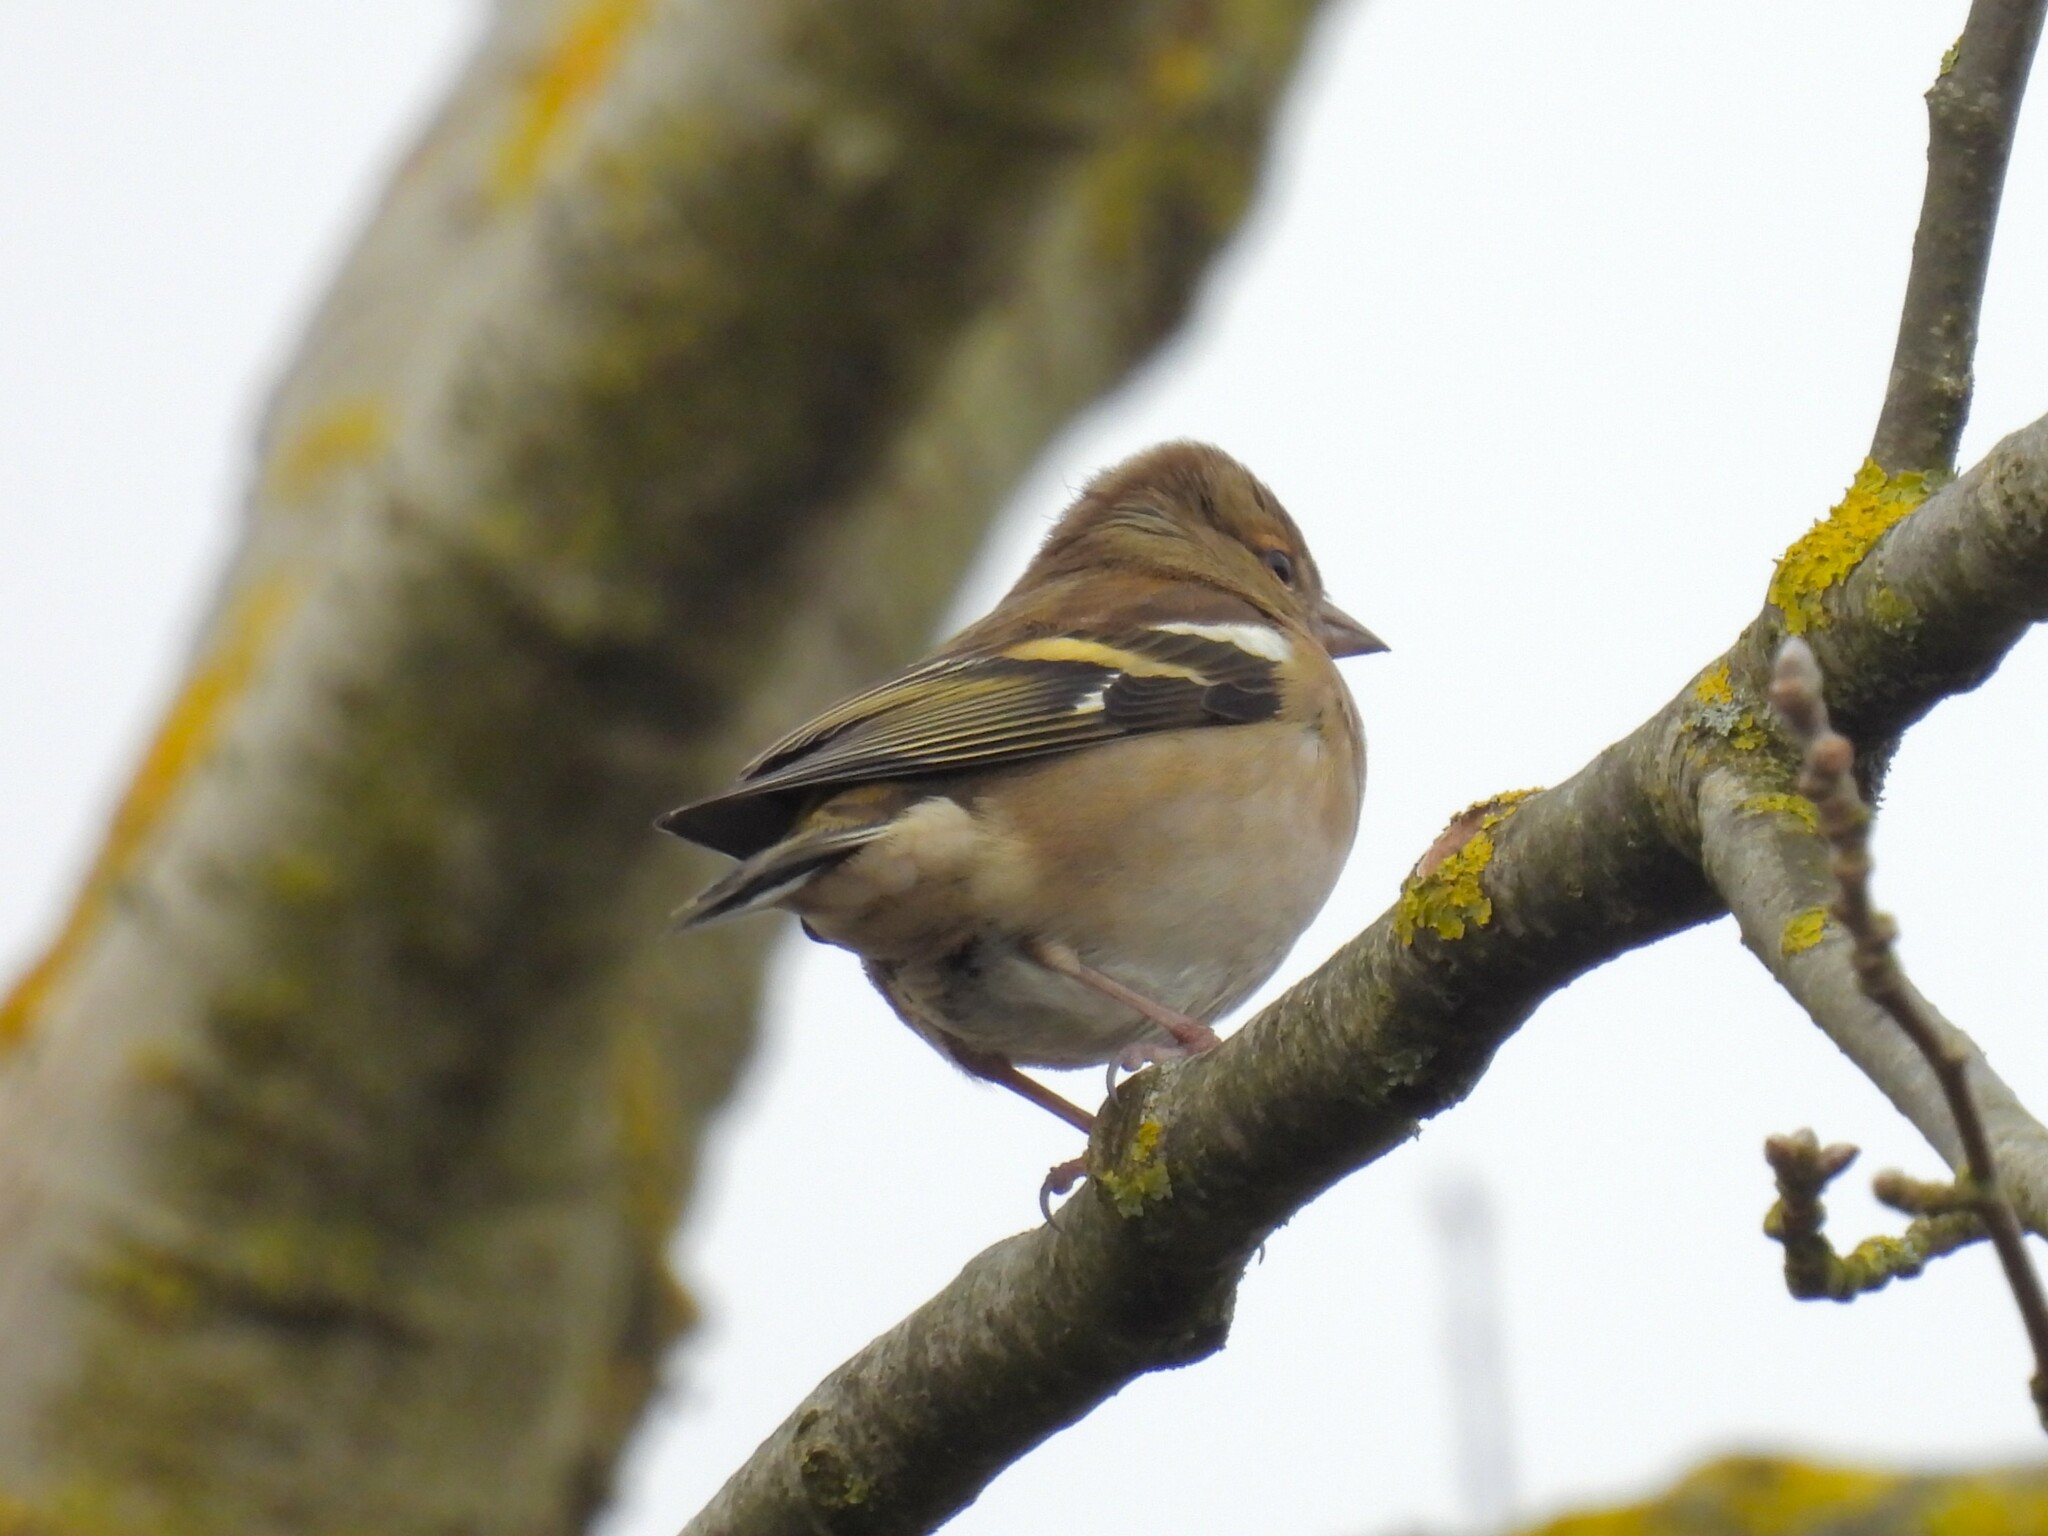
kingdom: Animalia
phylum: Chordata
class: Aves
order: Passeriformes
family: Fringillidae
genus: Fringilla
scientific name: Fringilla coelebs
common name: Common chaffinch
